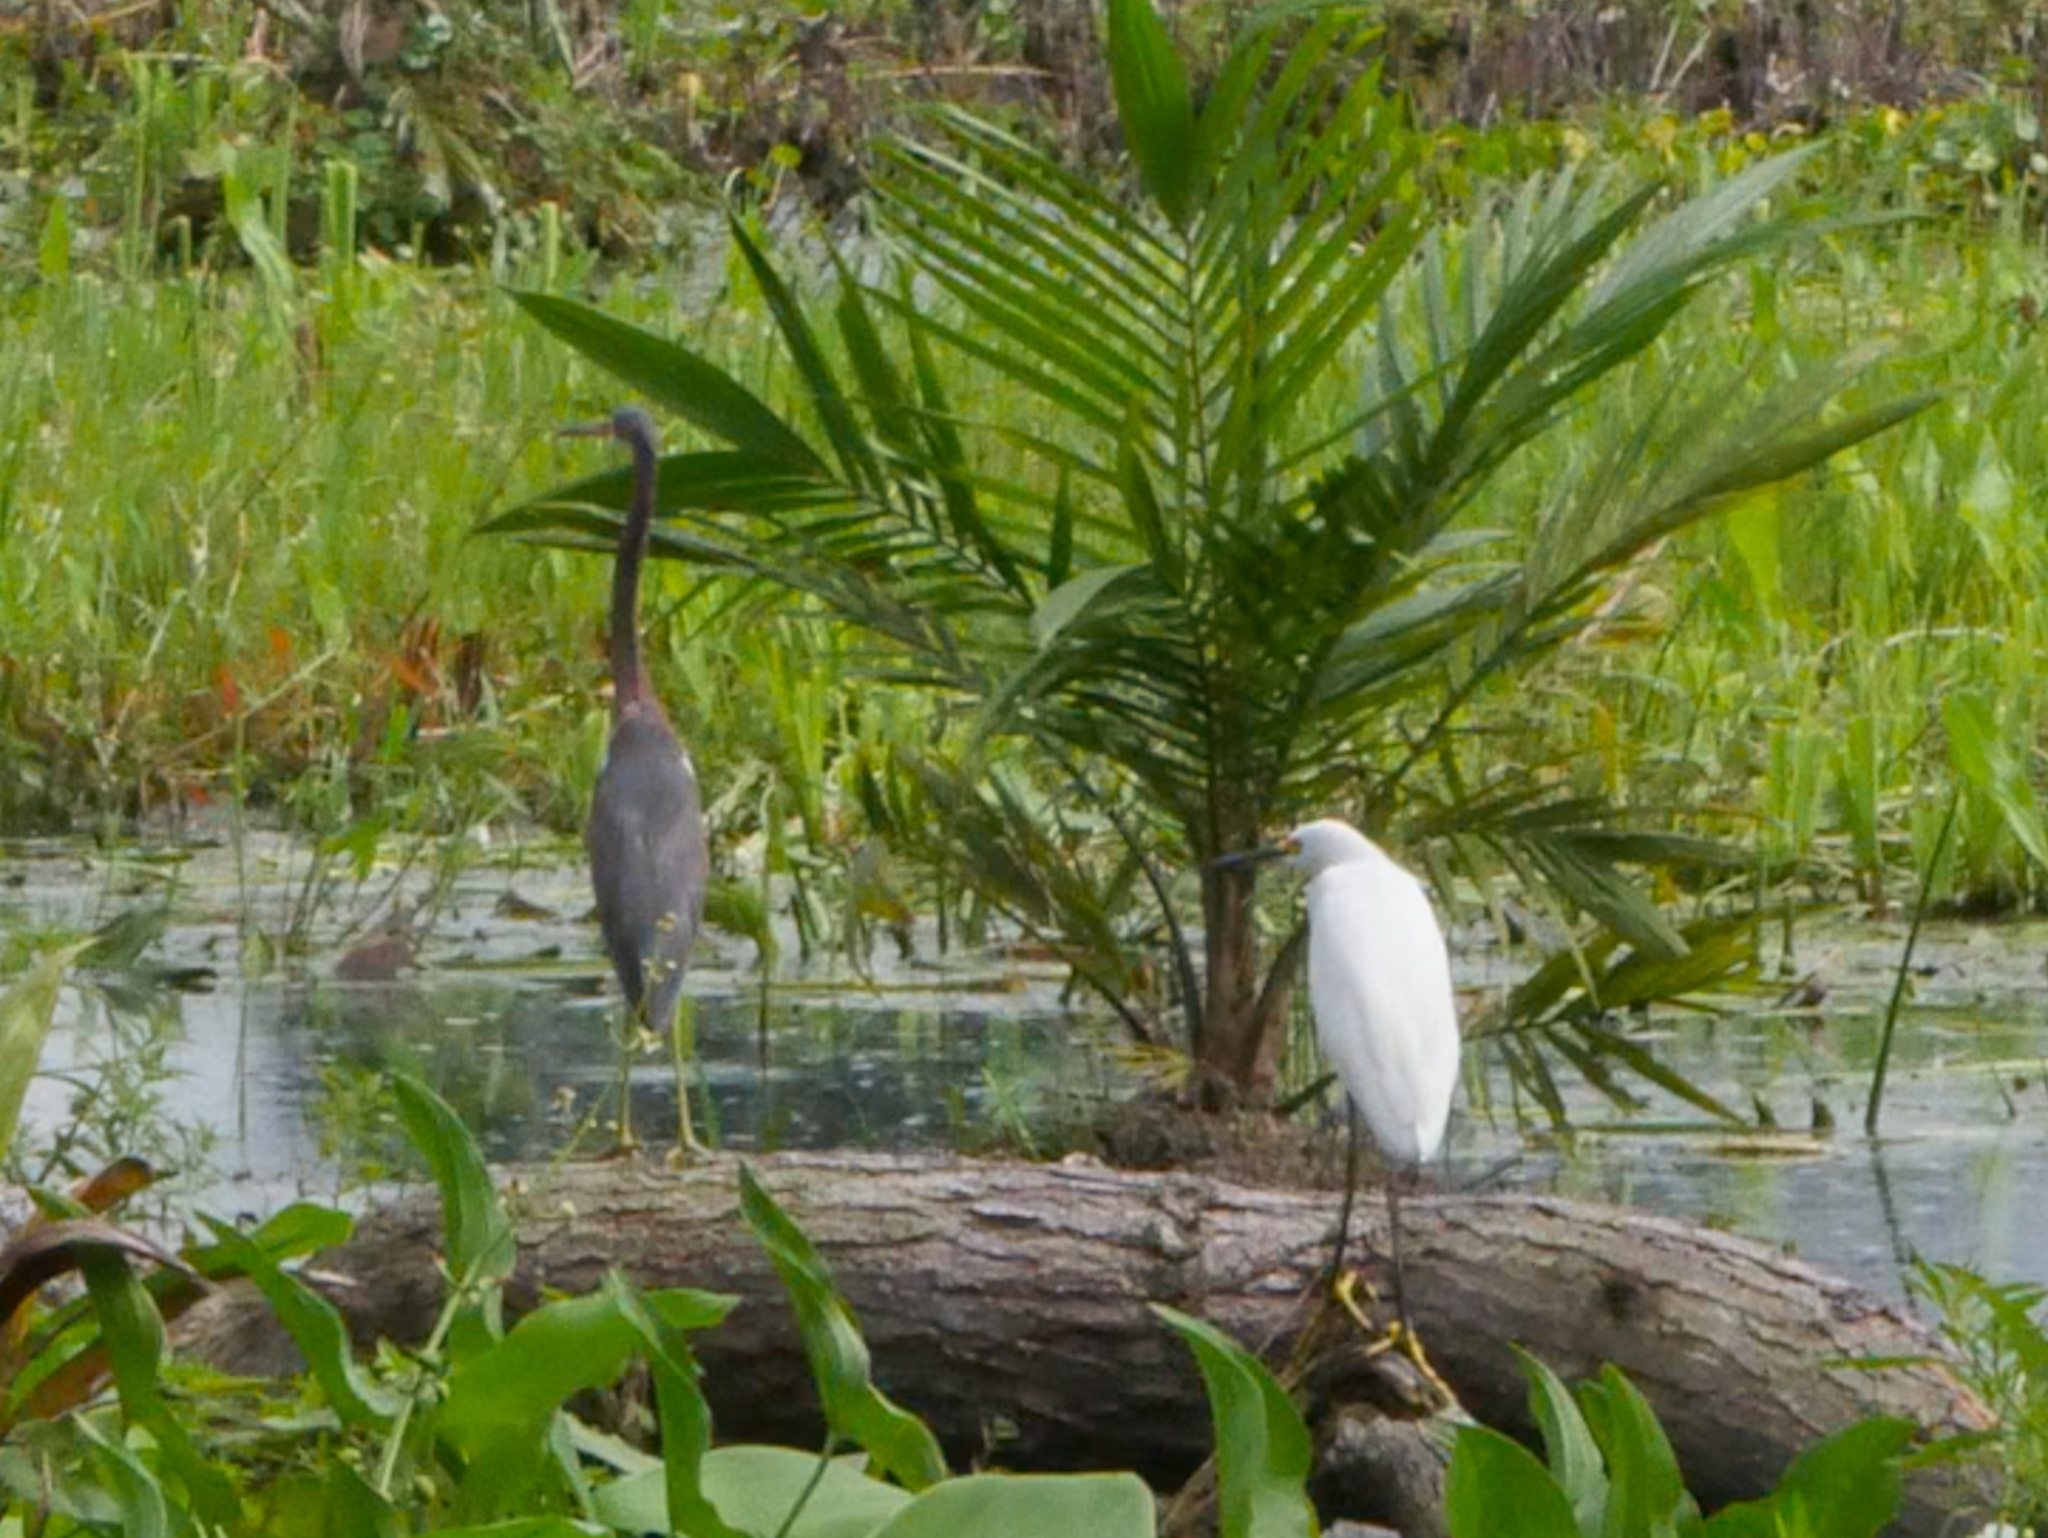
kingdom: Animalia
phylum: Chordata
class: Aves
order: Pelecaniformes
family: Ardeidae
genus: Egretta
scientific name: Egretta tricolor
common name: Tricolored heron
